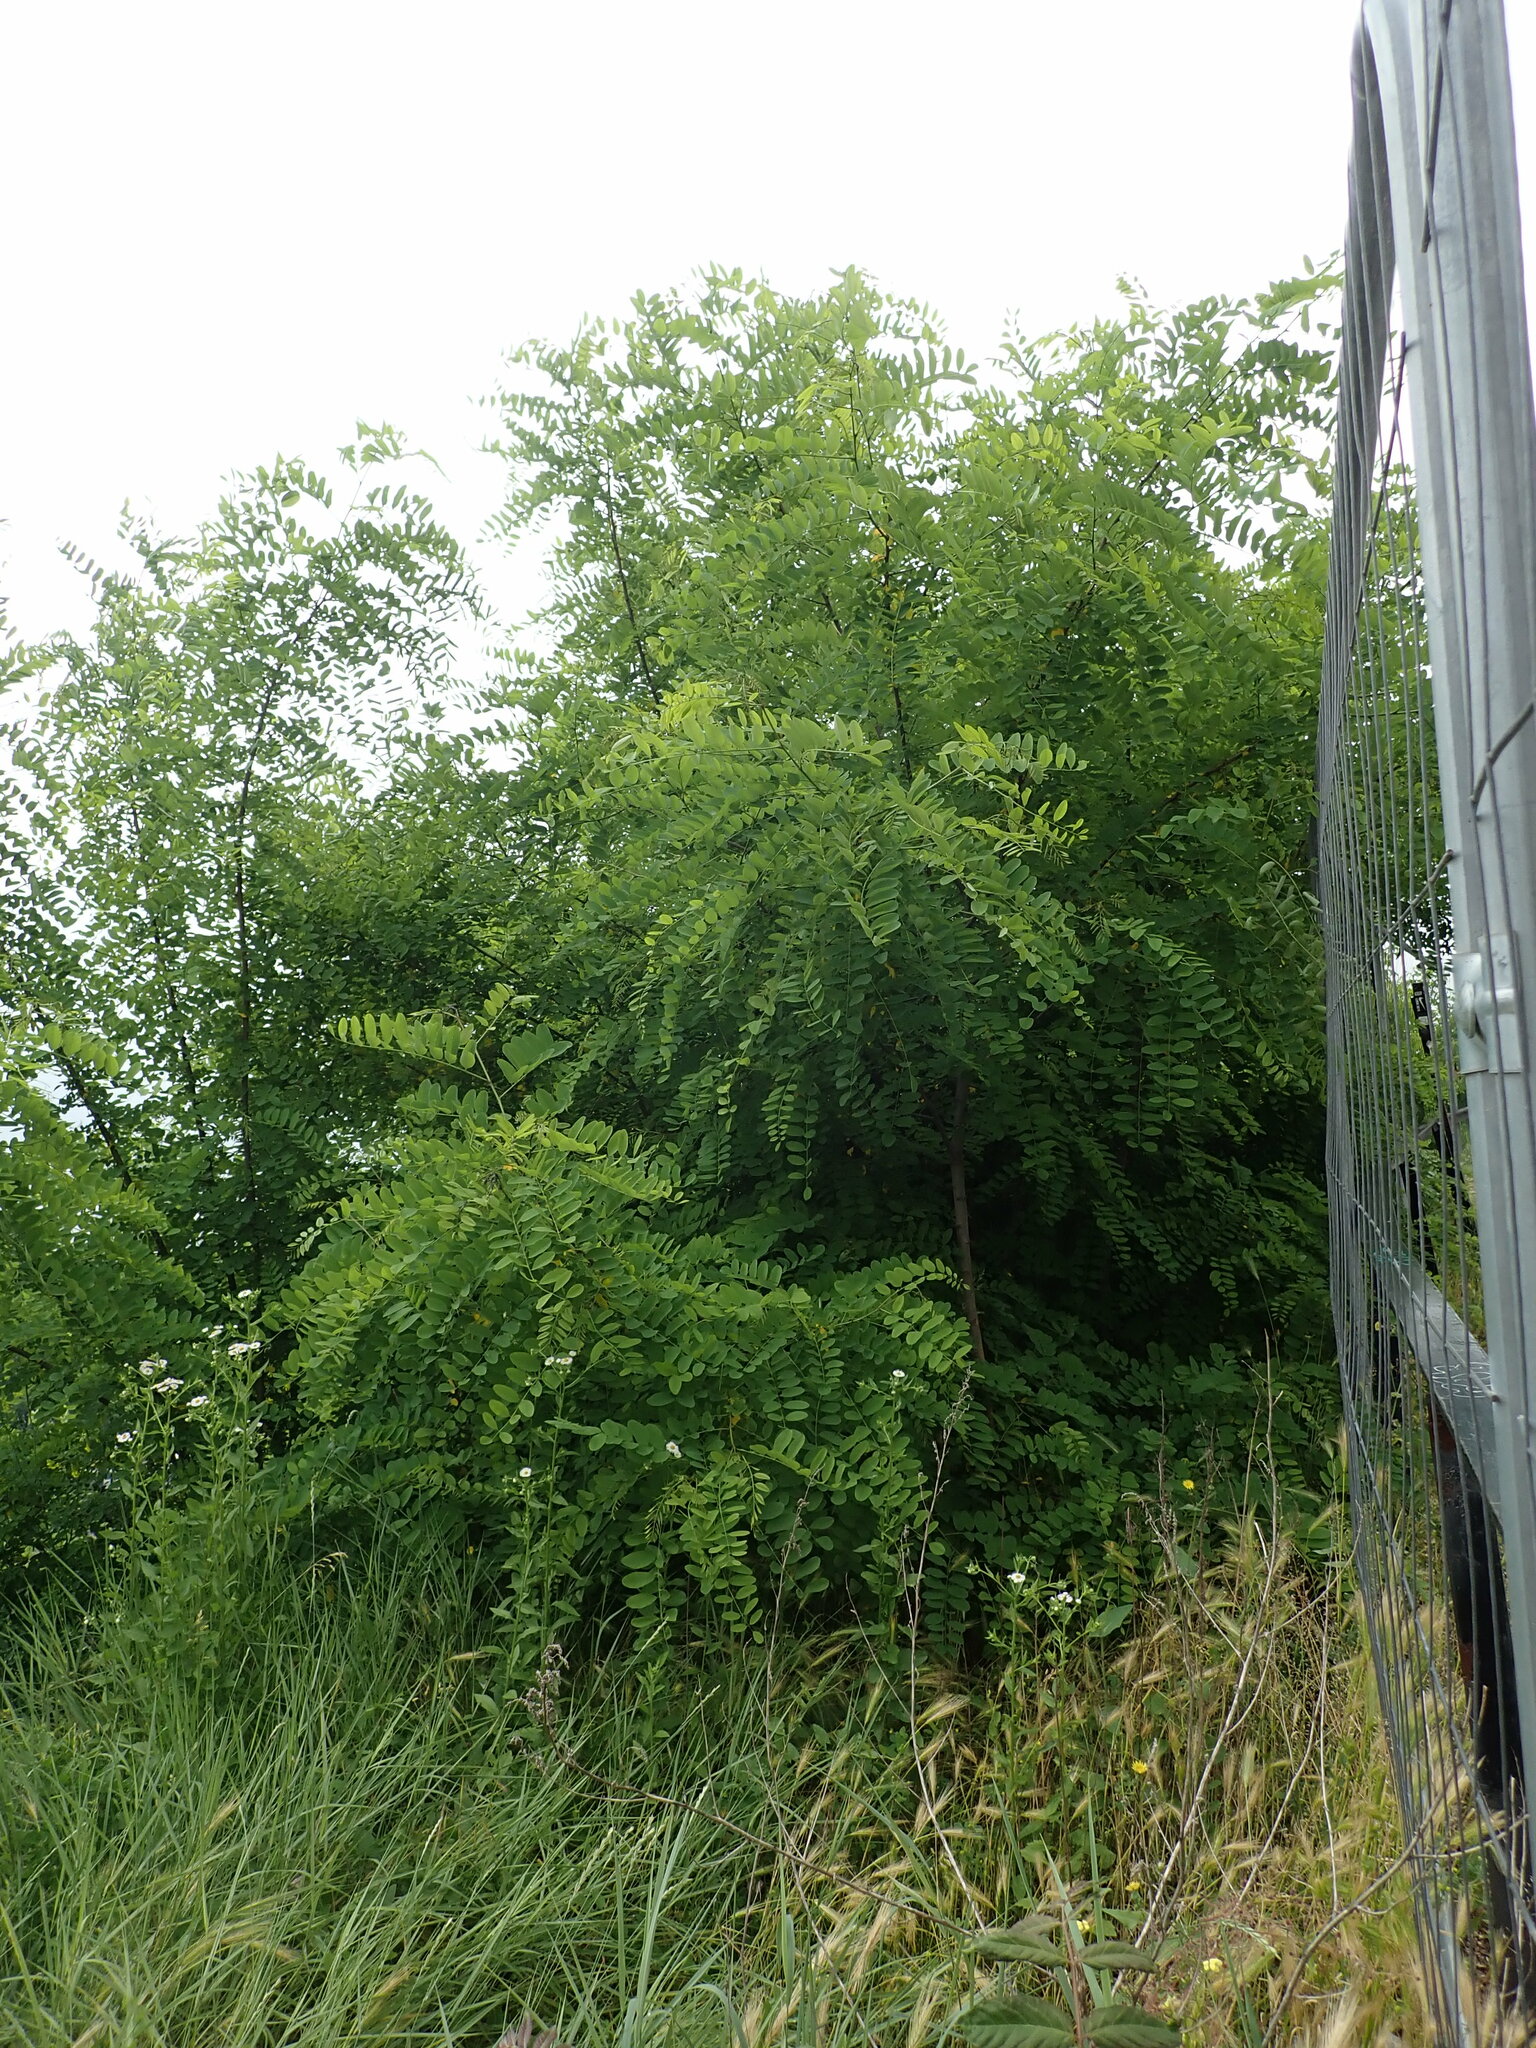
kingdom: Plantae
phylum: Tracheophyta
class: Magnoliopsida
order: Fabales
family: Fabaceae
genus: Robinia
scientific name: Robinia pseudoacacia
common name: Black locust
